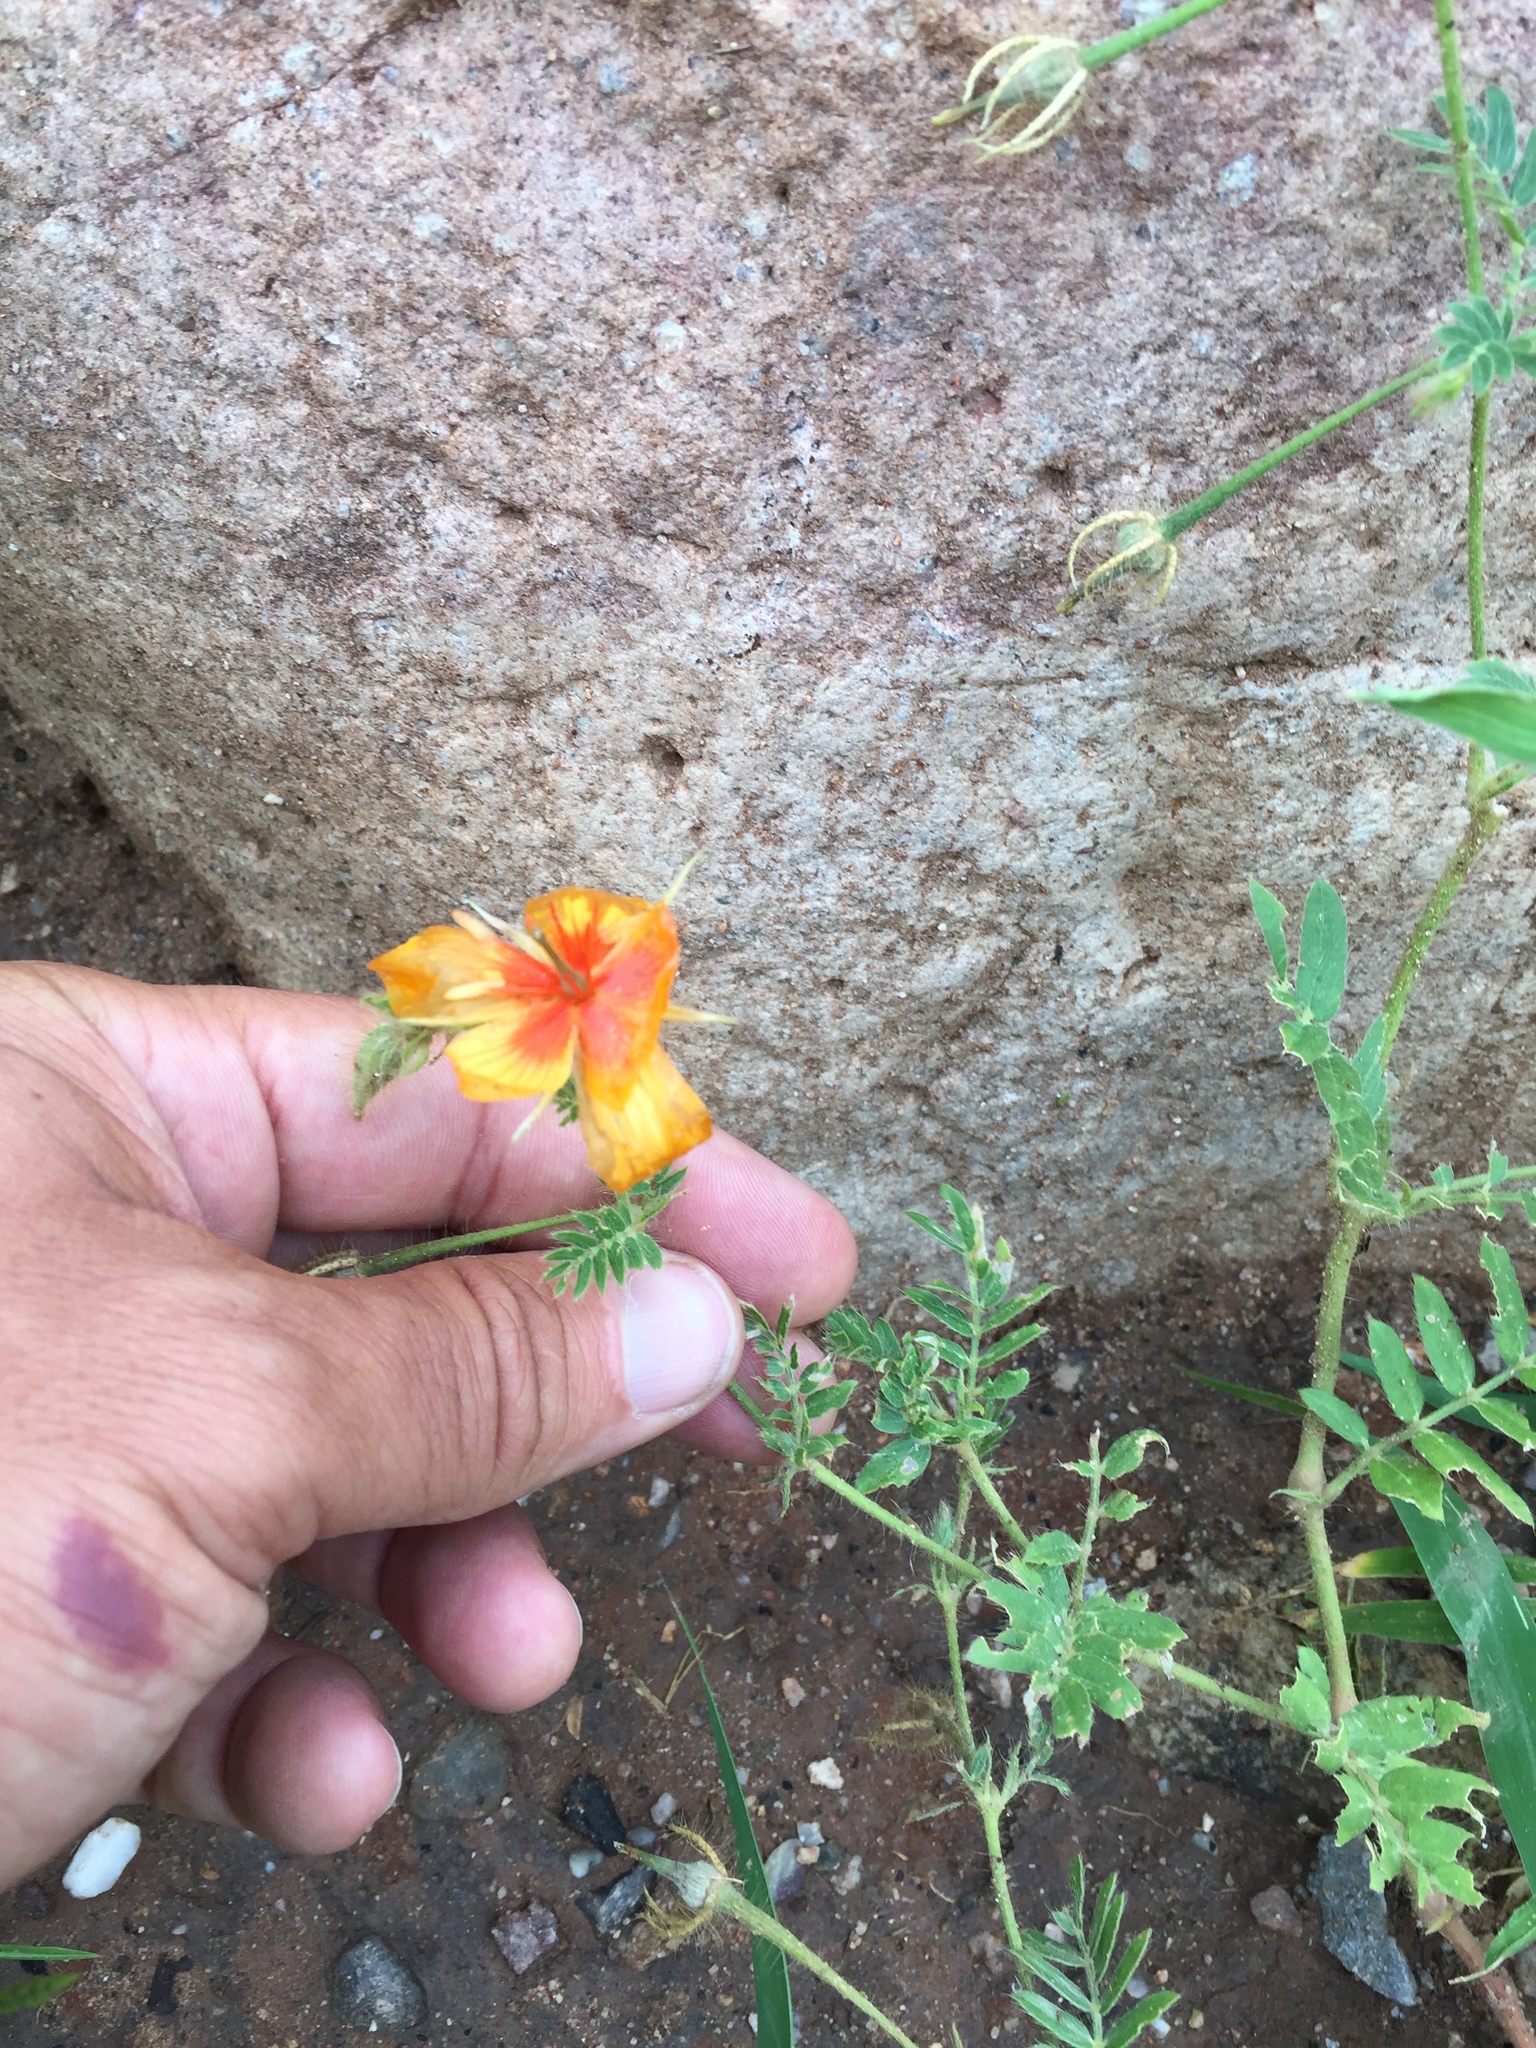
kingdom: Plantae
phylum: Tracheophyta
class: Magnoliopsida
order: Zygophyllales
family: Zygophyllaceae
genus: Kallstroemia
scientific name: Kallstroemia grandiflora
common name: Arizona-poppy
